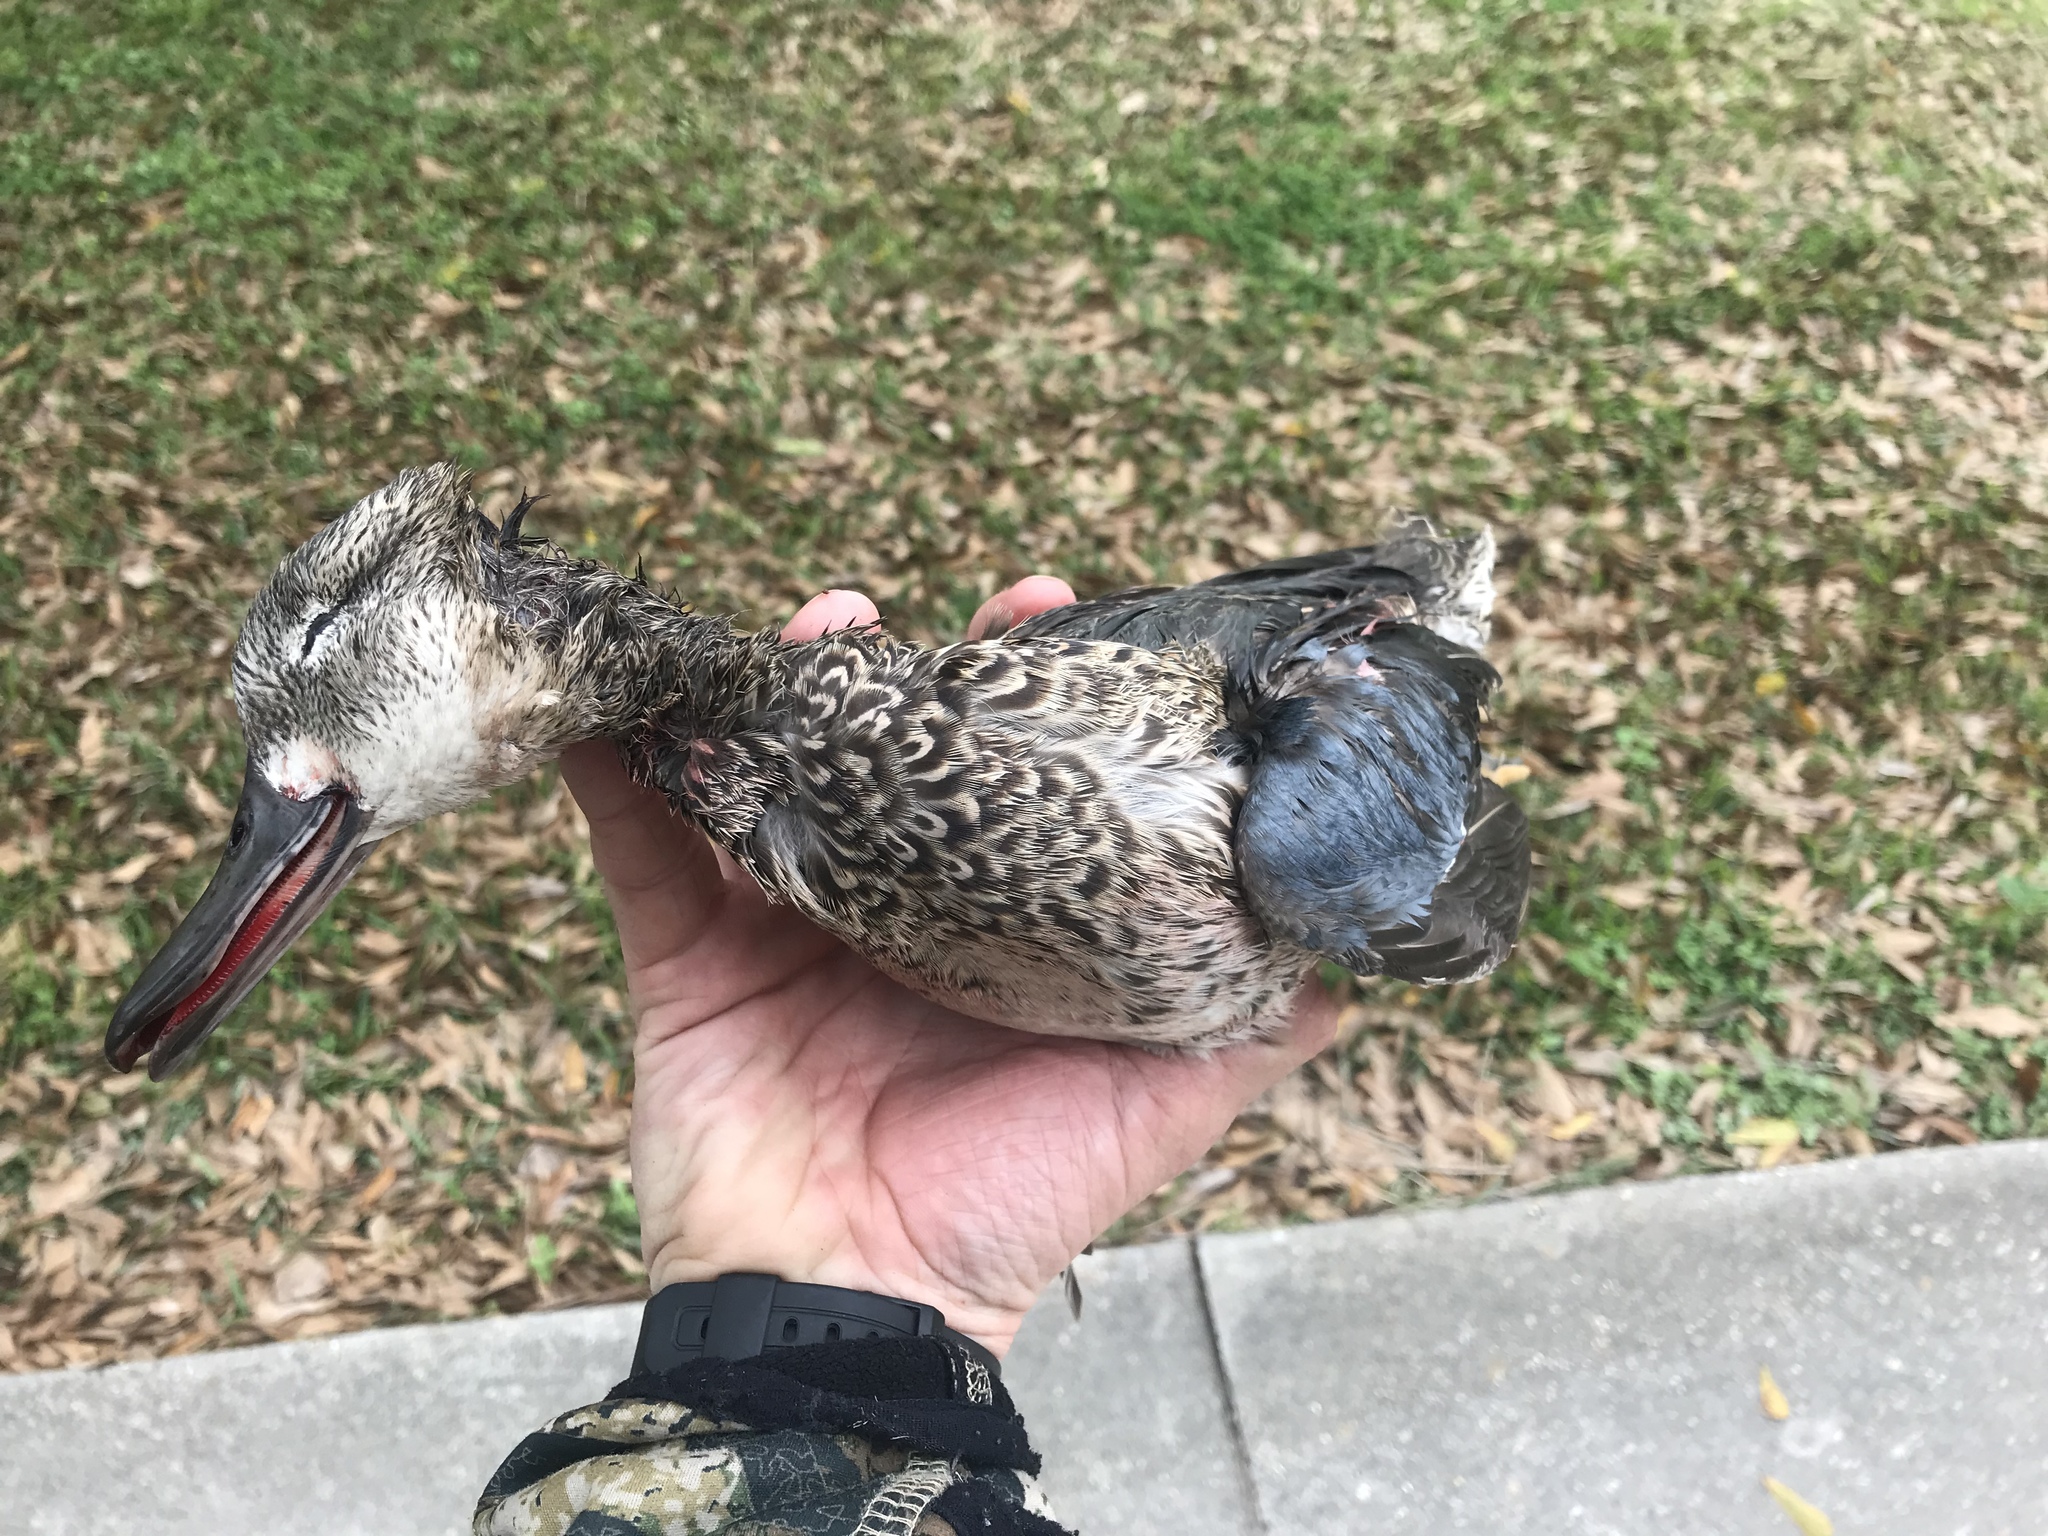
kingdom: Animalia
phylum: Chordata
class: Aves
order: Anseriformes
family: Anatidae
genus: Spatula
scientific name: Spatula discors
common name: Blue-winged teal
